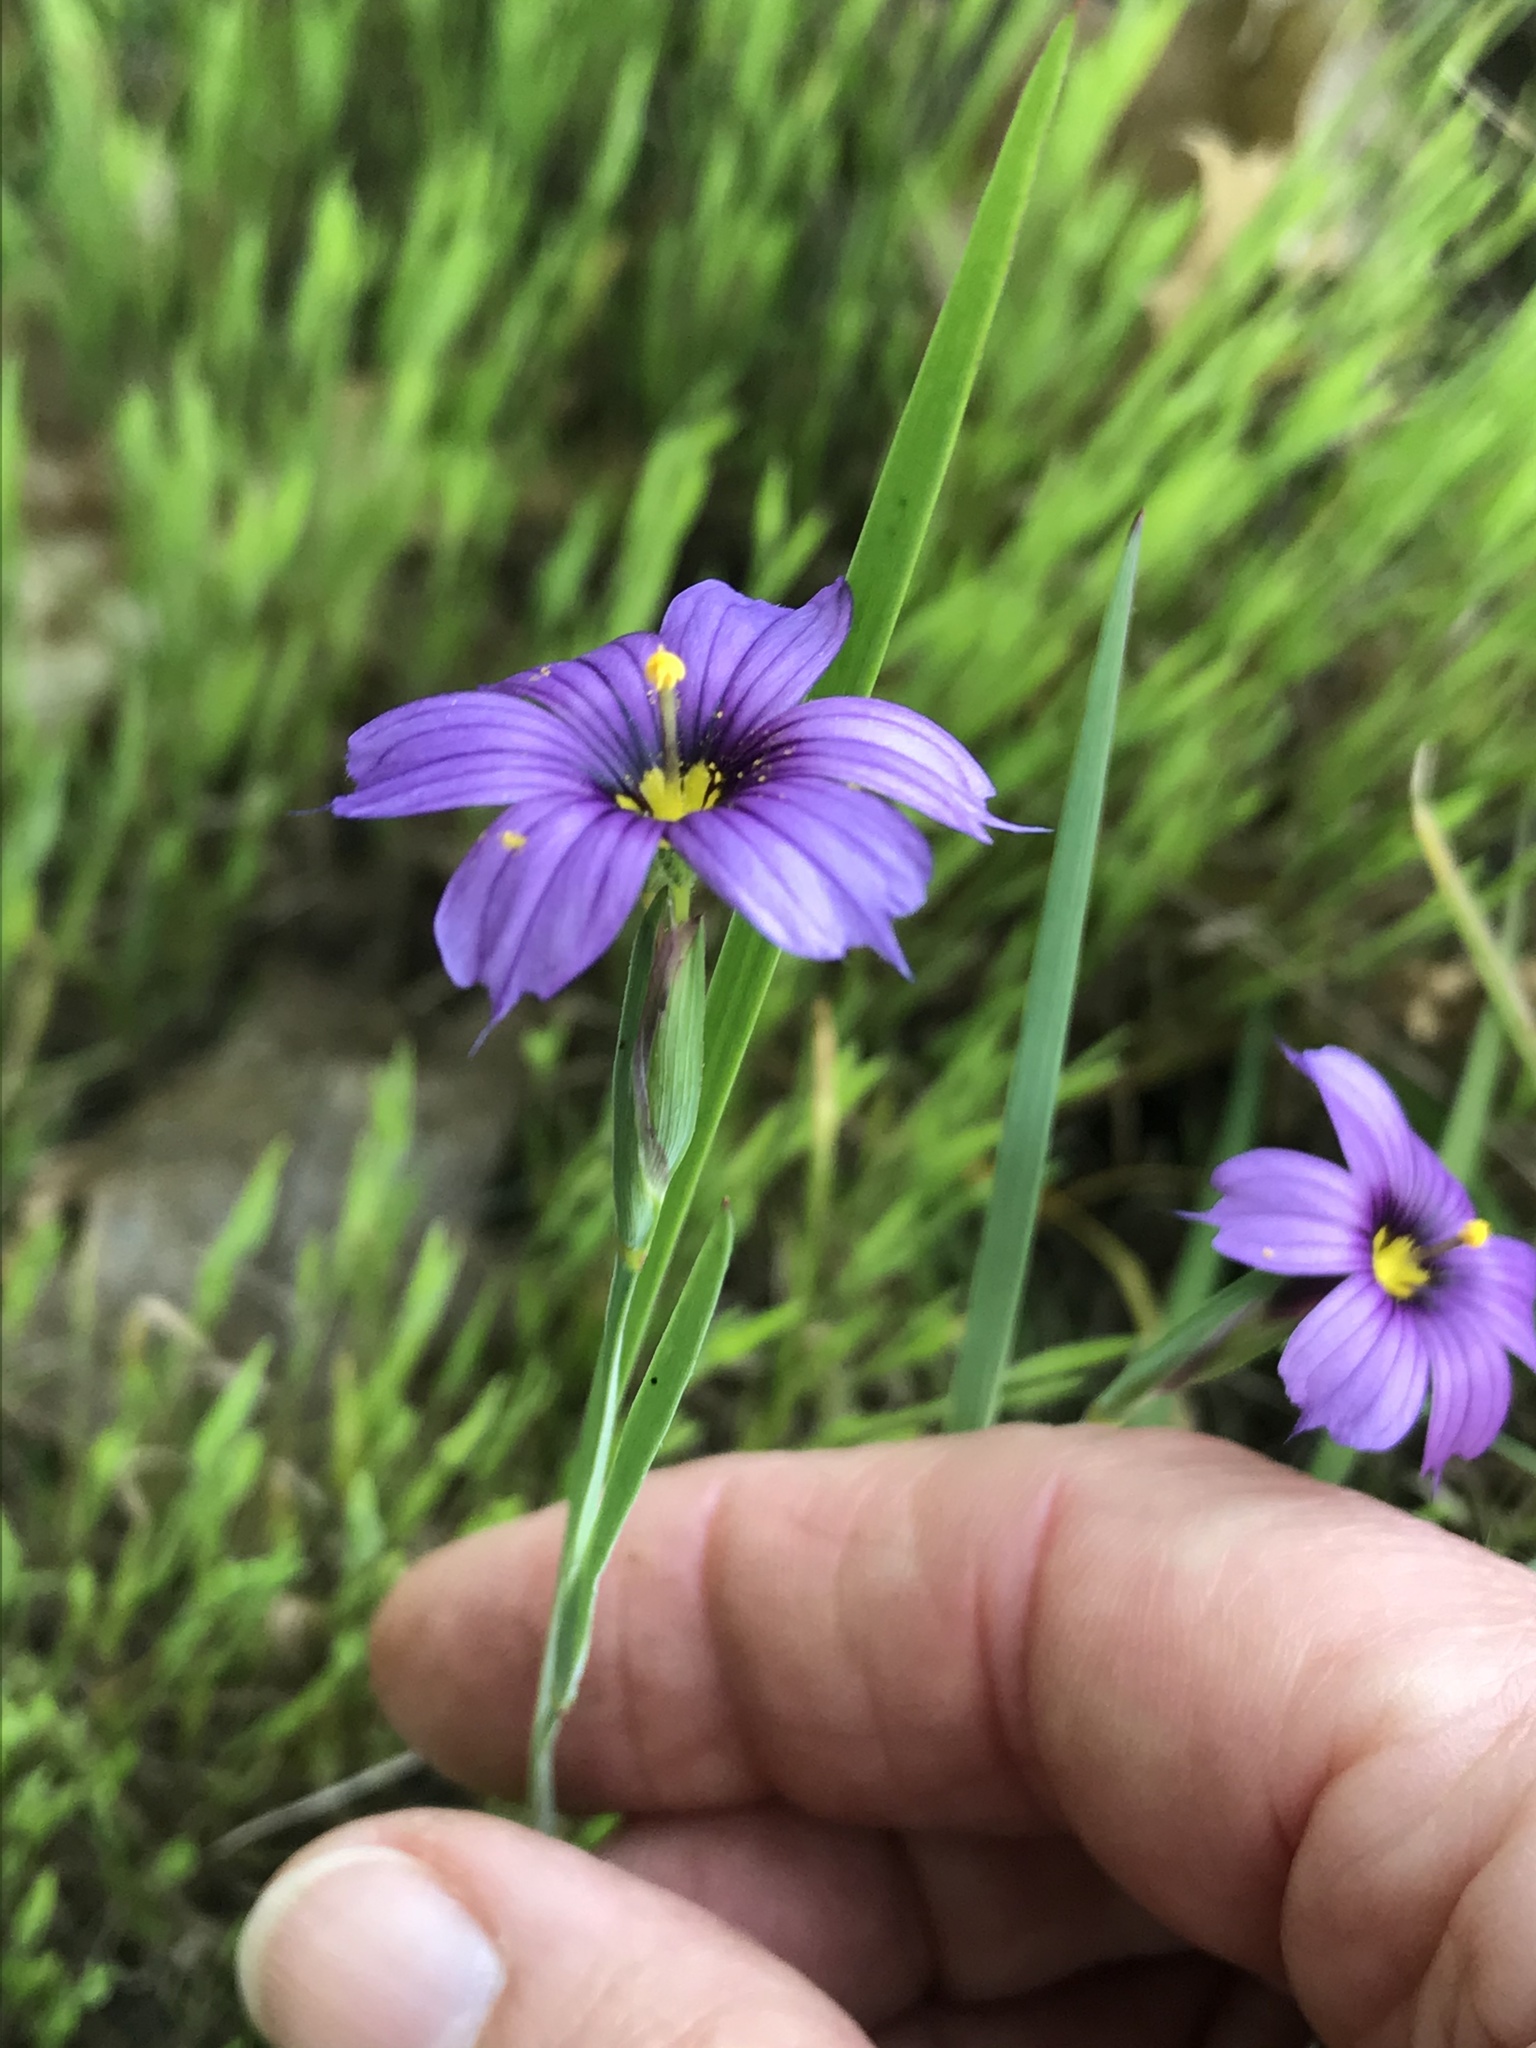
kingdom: Plantae
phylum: Tracheophyta
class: Liliopsida
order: Asparagales
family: Iridaceae
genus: Sisyrinchium
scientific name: Sisyrinchium bellum
